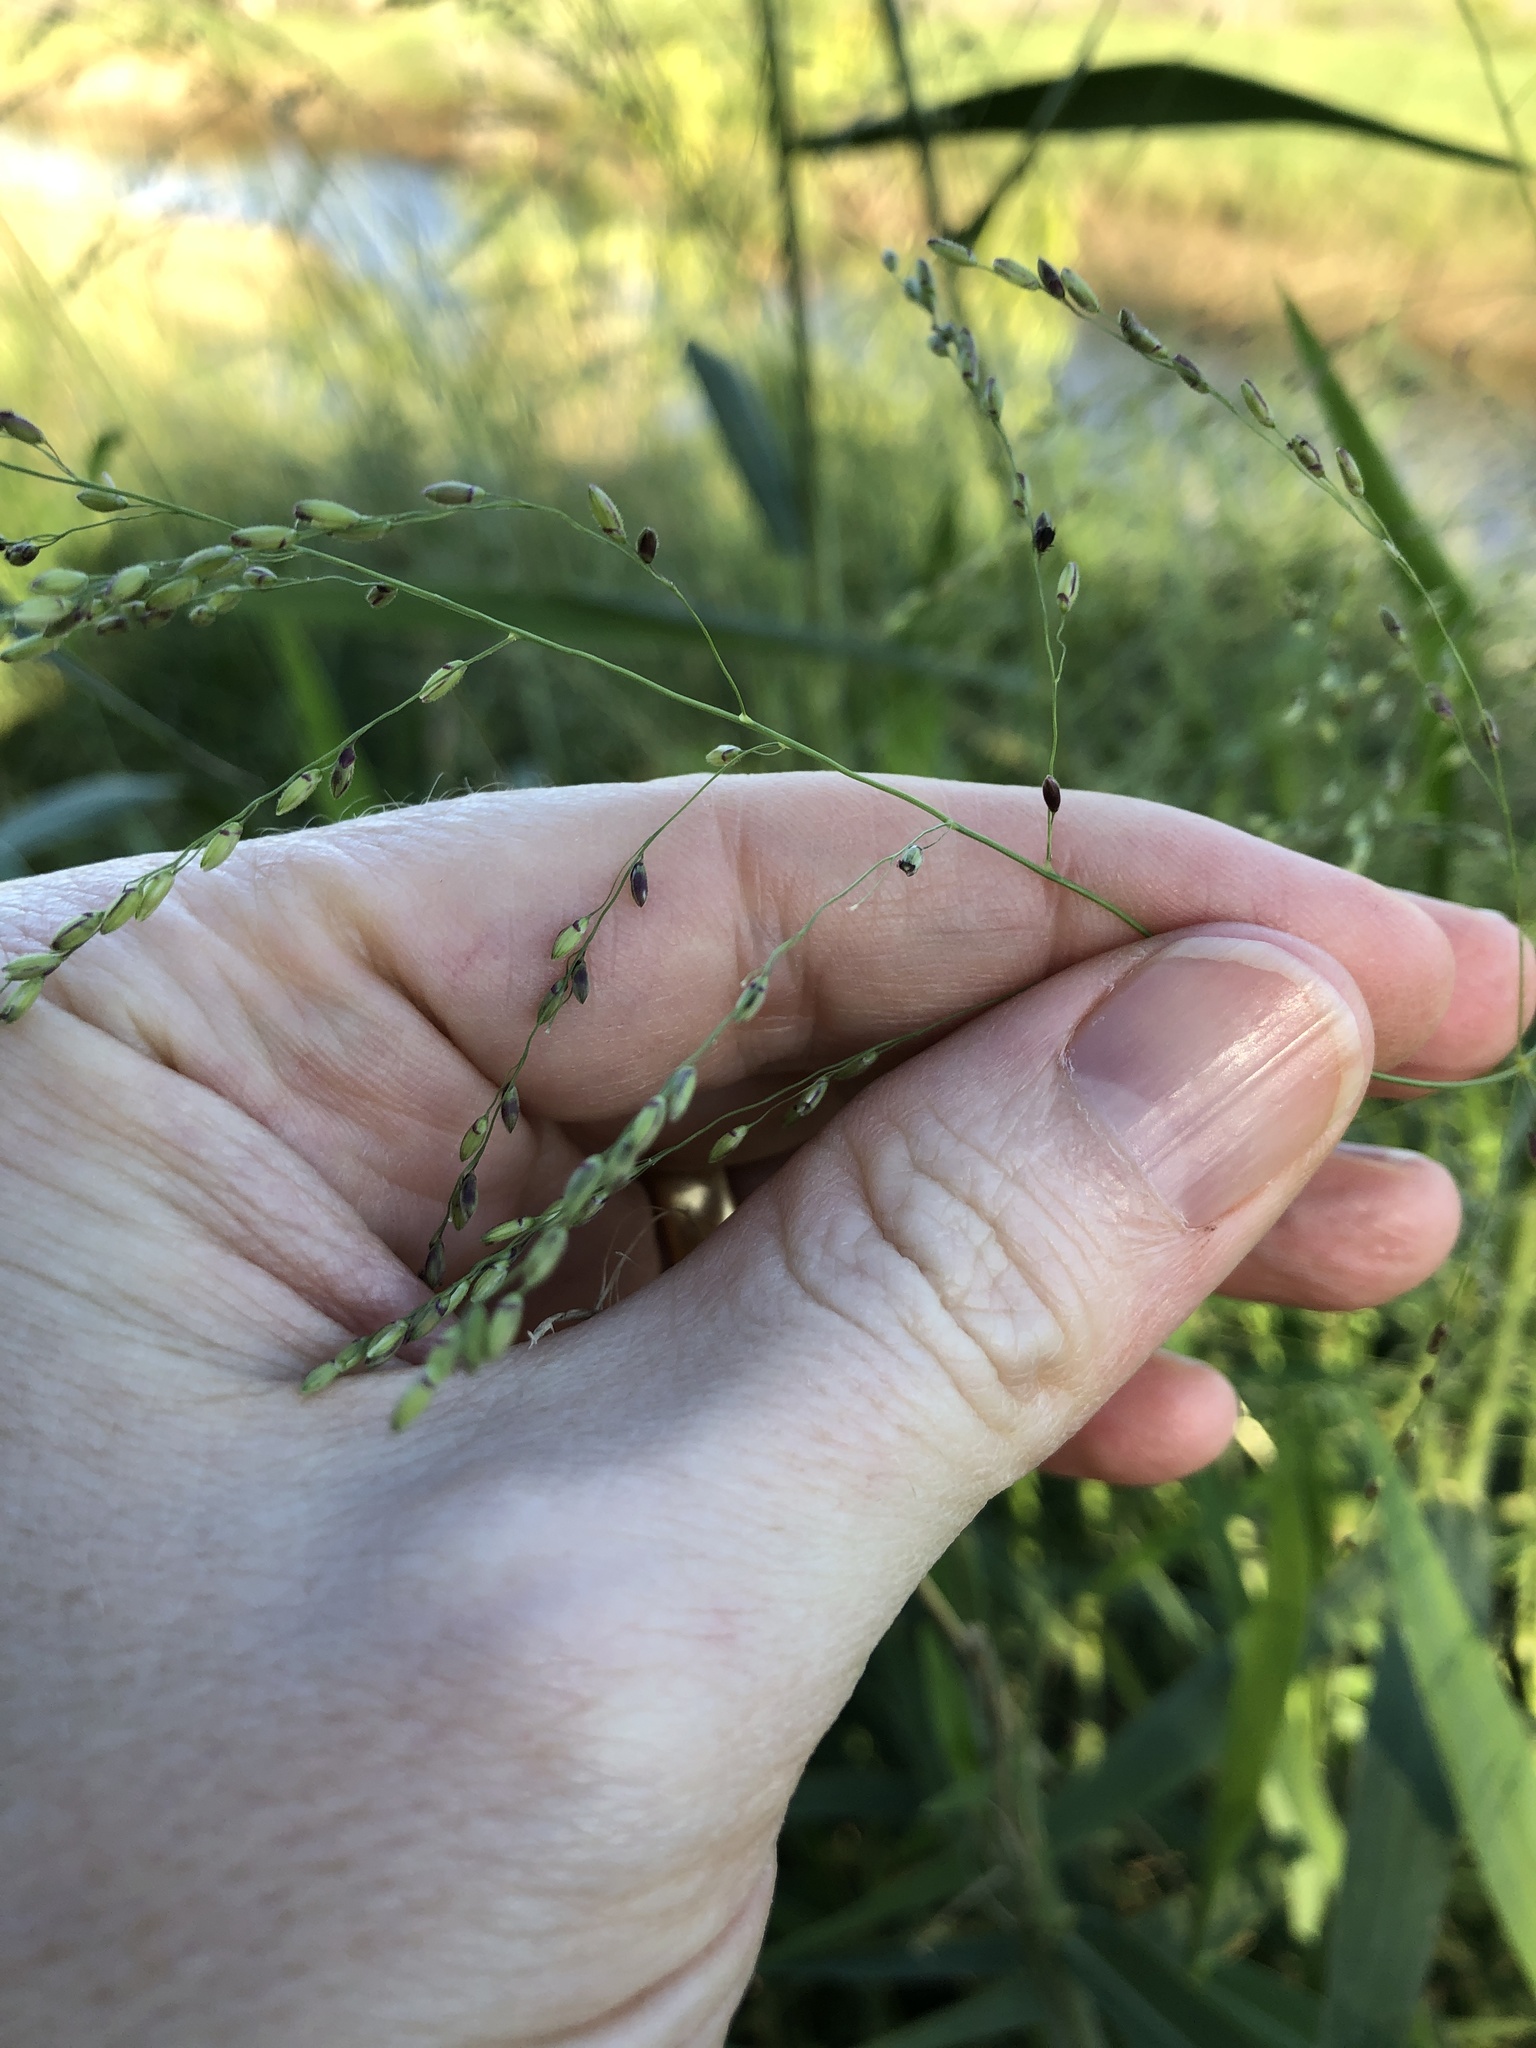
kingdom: Plantae
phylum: Tracheophyta
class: Liliopsida
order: Poales
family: Poaceae
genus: Megathyrsus
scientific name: Megathyrsus maximus
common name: Guineagrass
